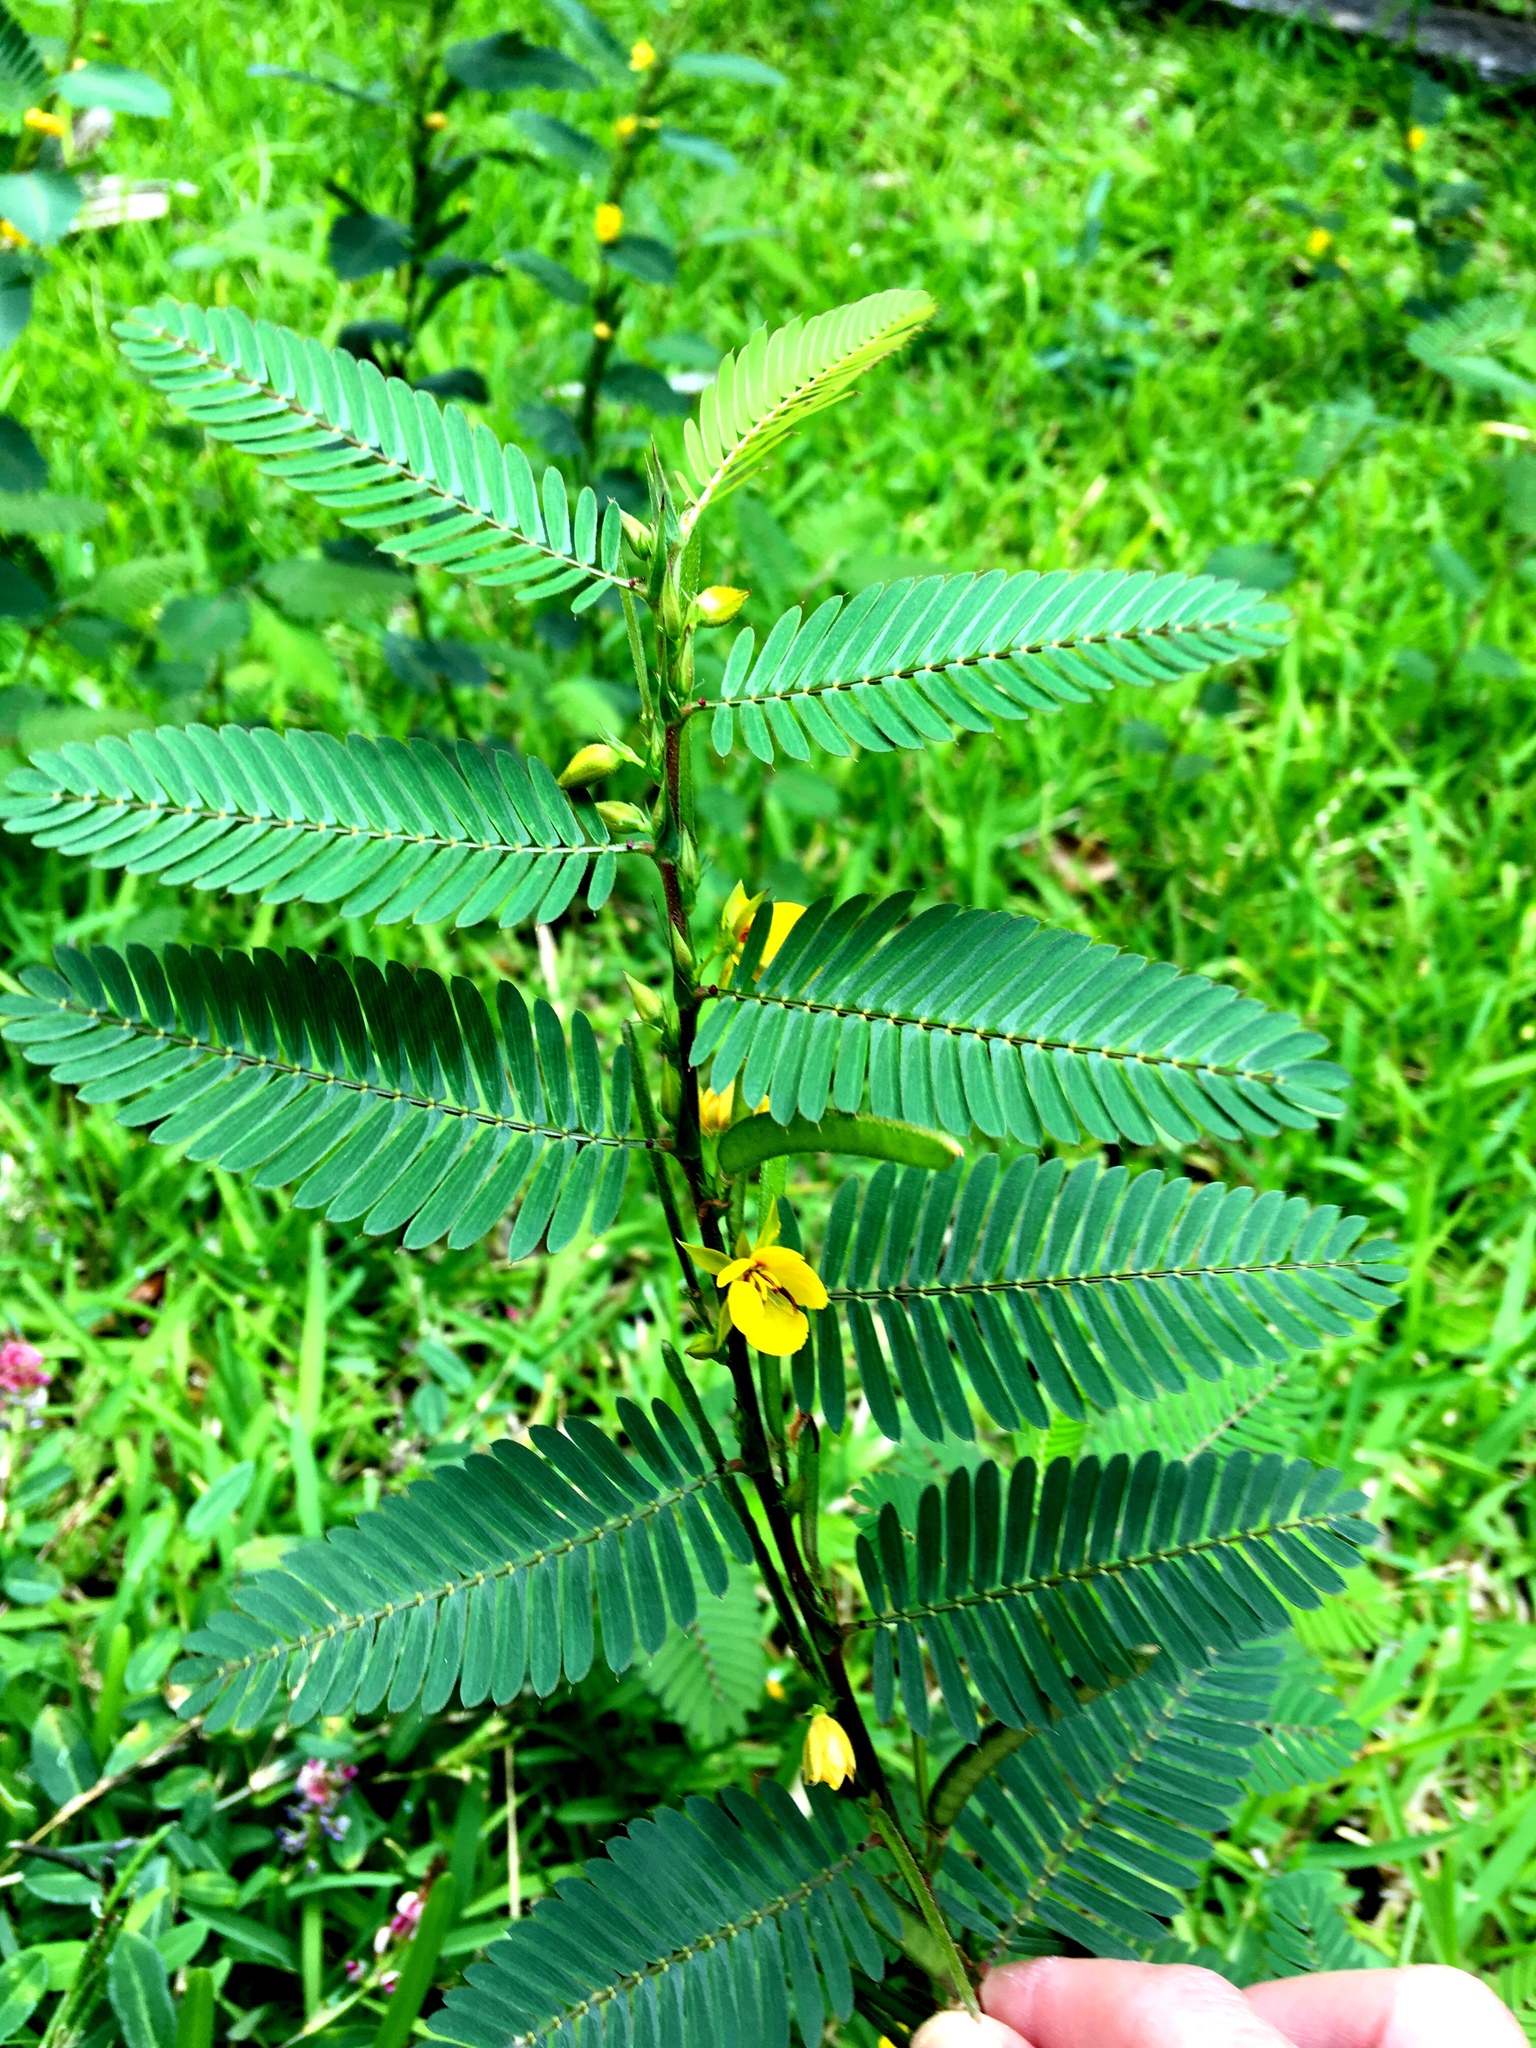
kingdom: Plantae
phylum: Tracheophyta
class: Magnoliopsida
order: Fabales
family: Fabaceae
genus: Chamaecrista
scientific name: Chamaecrista nictitans
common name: Sensitive cassia
